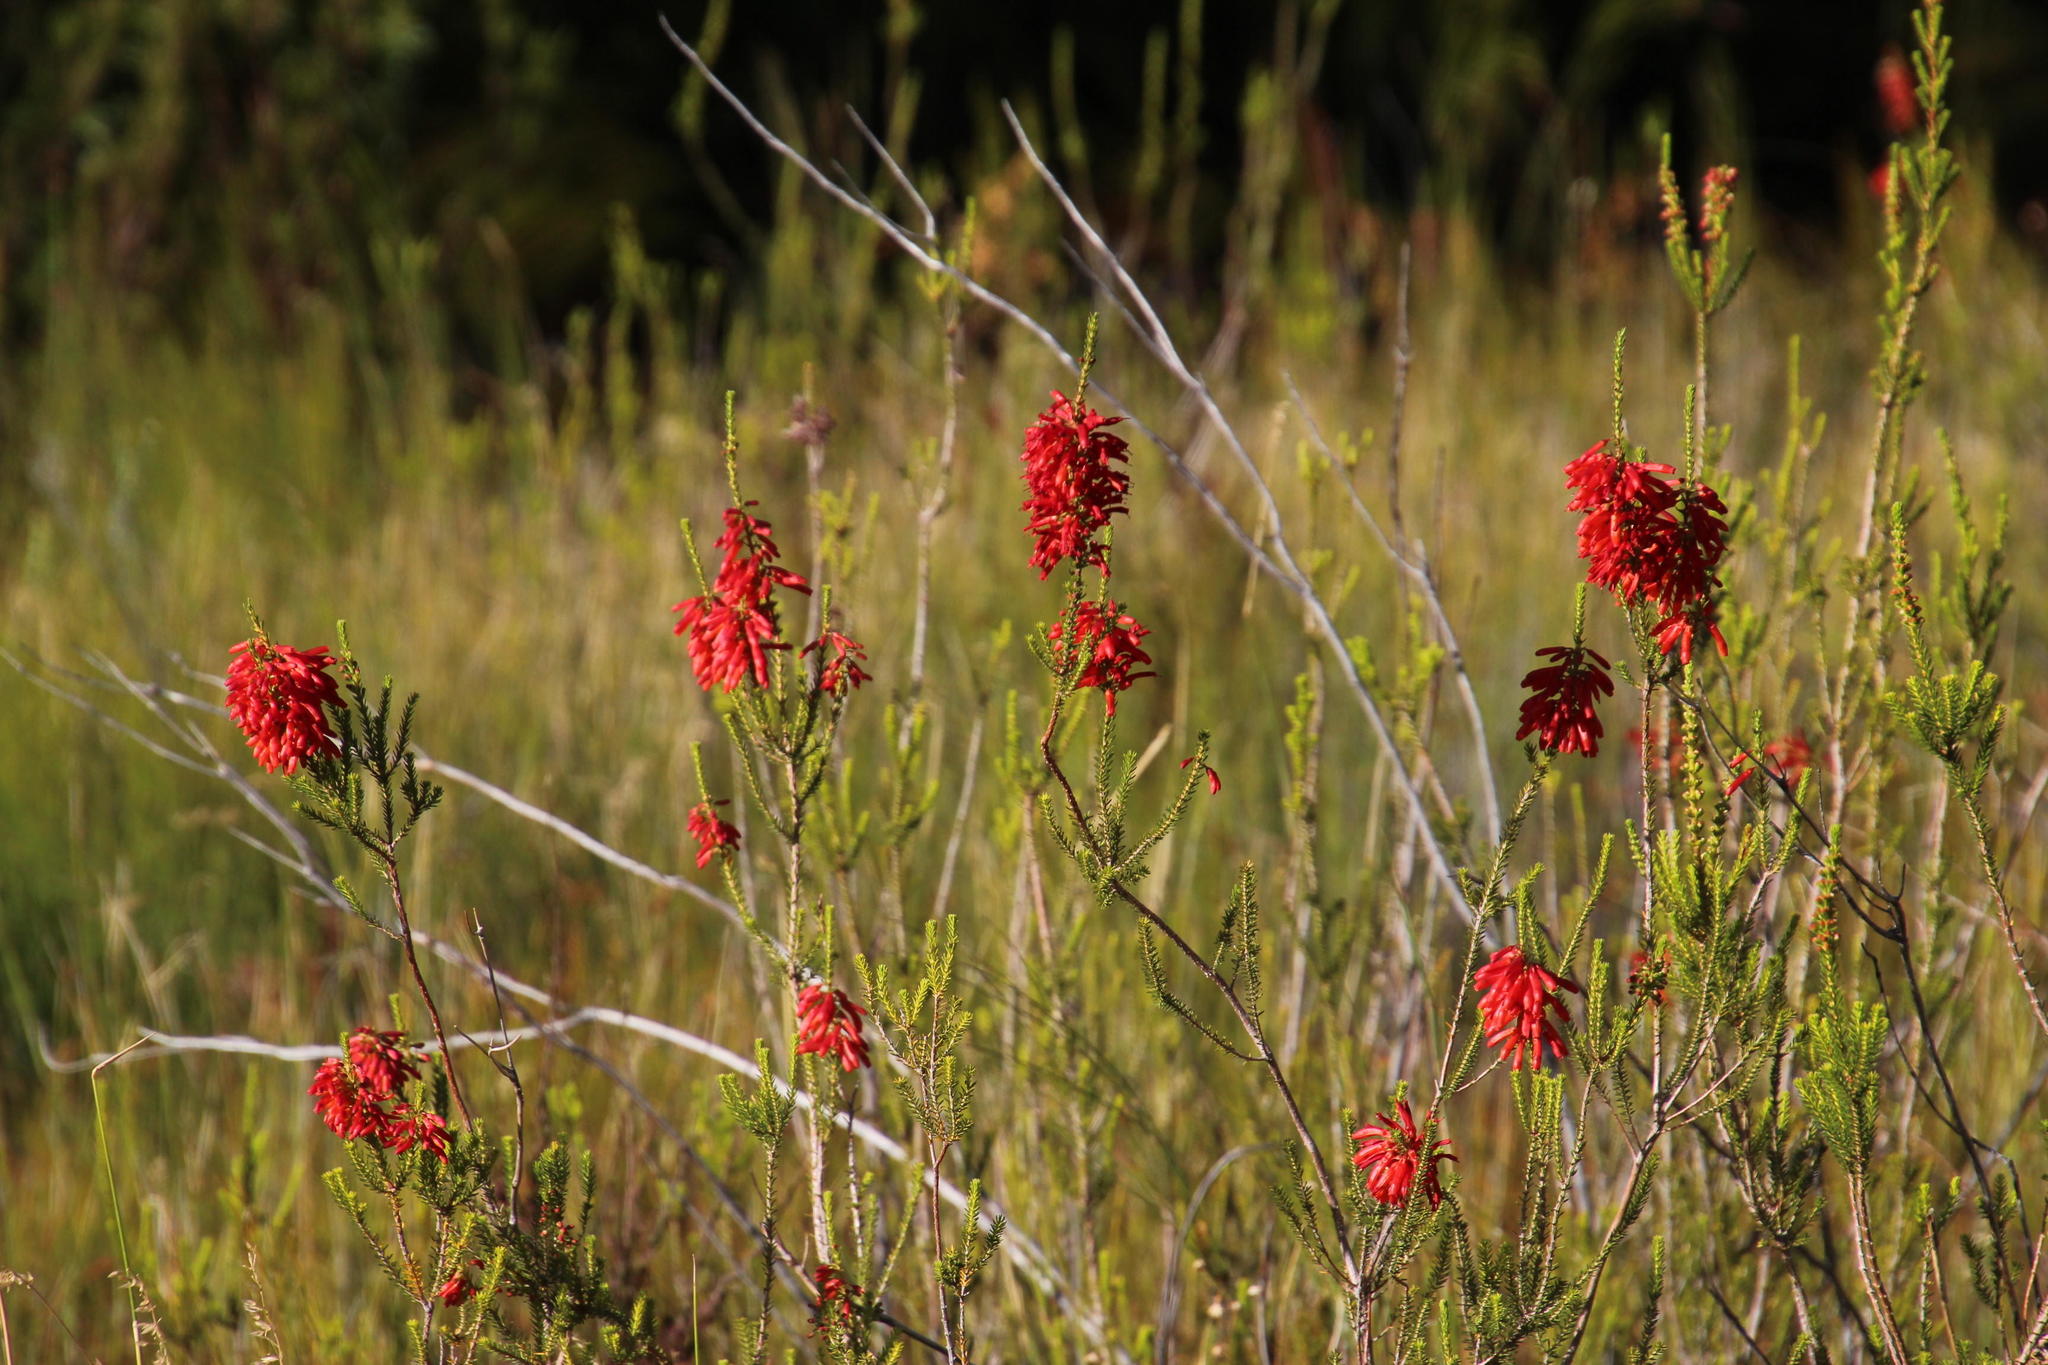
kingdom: Plantae
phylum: Tracheophyta
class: Magnoliopsida
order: Ericales
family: Ericaceae
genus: Erica
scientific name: Erica mammosa
